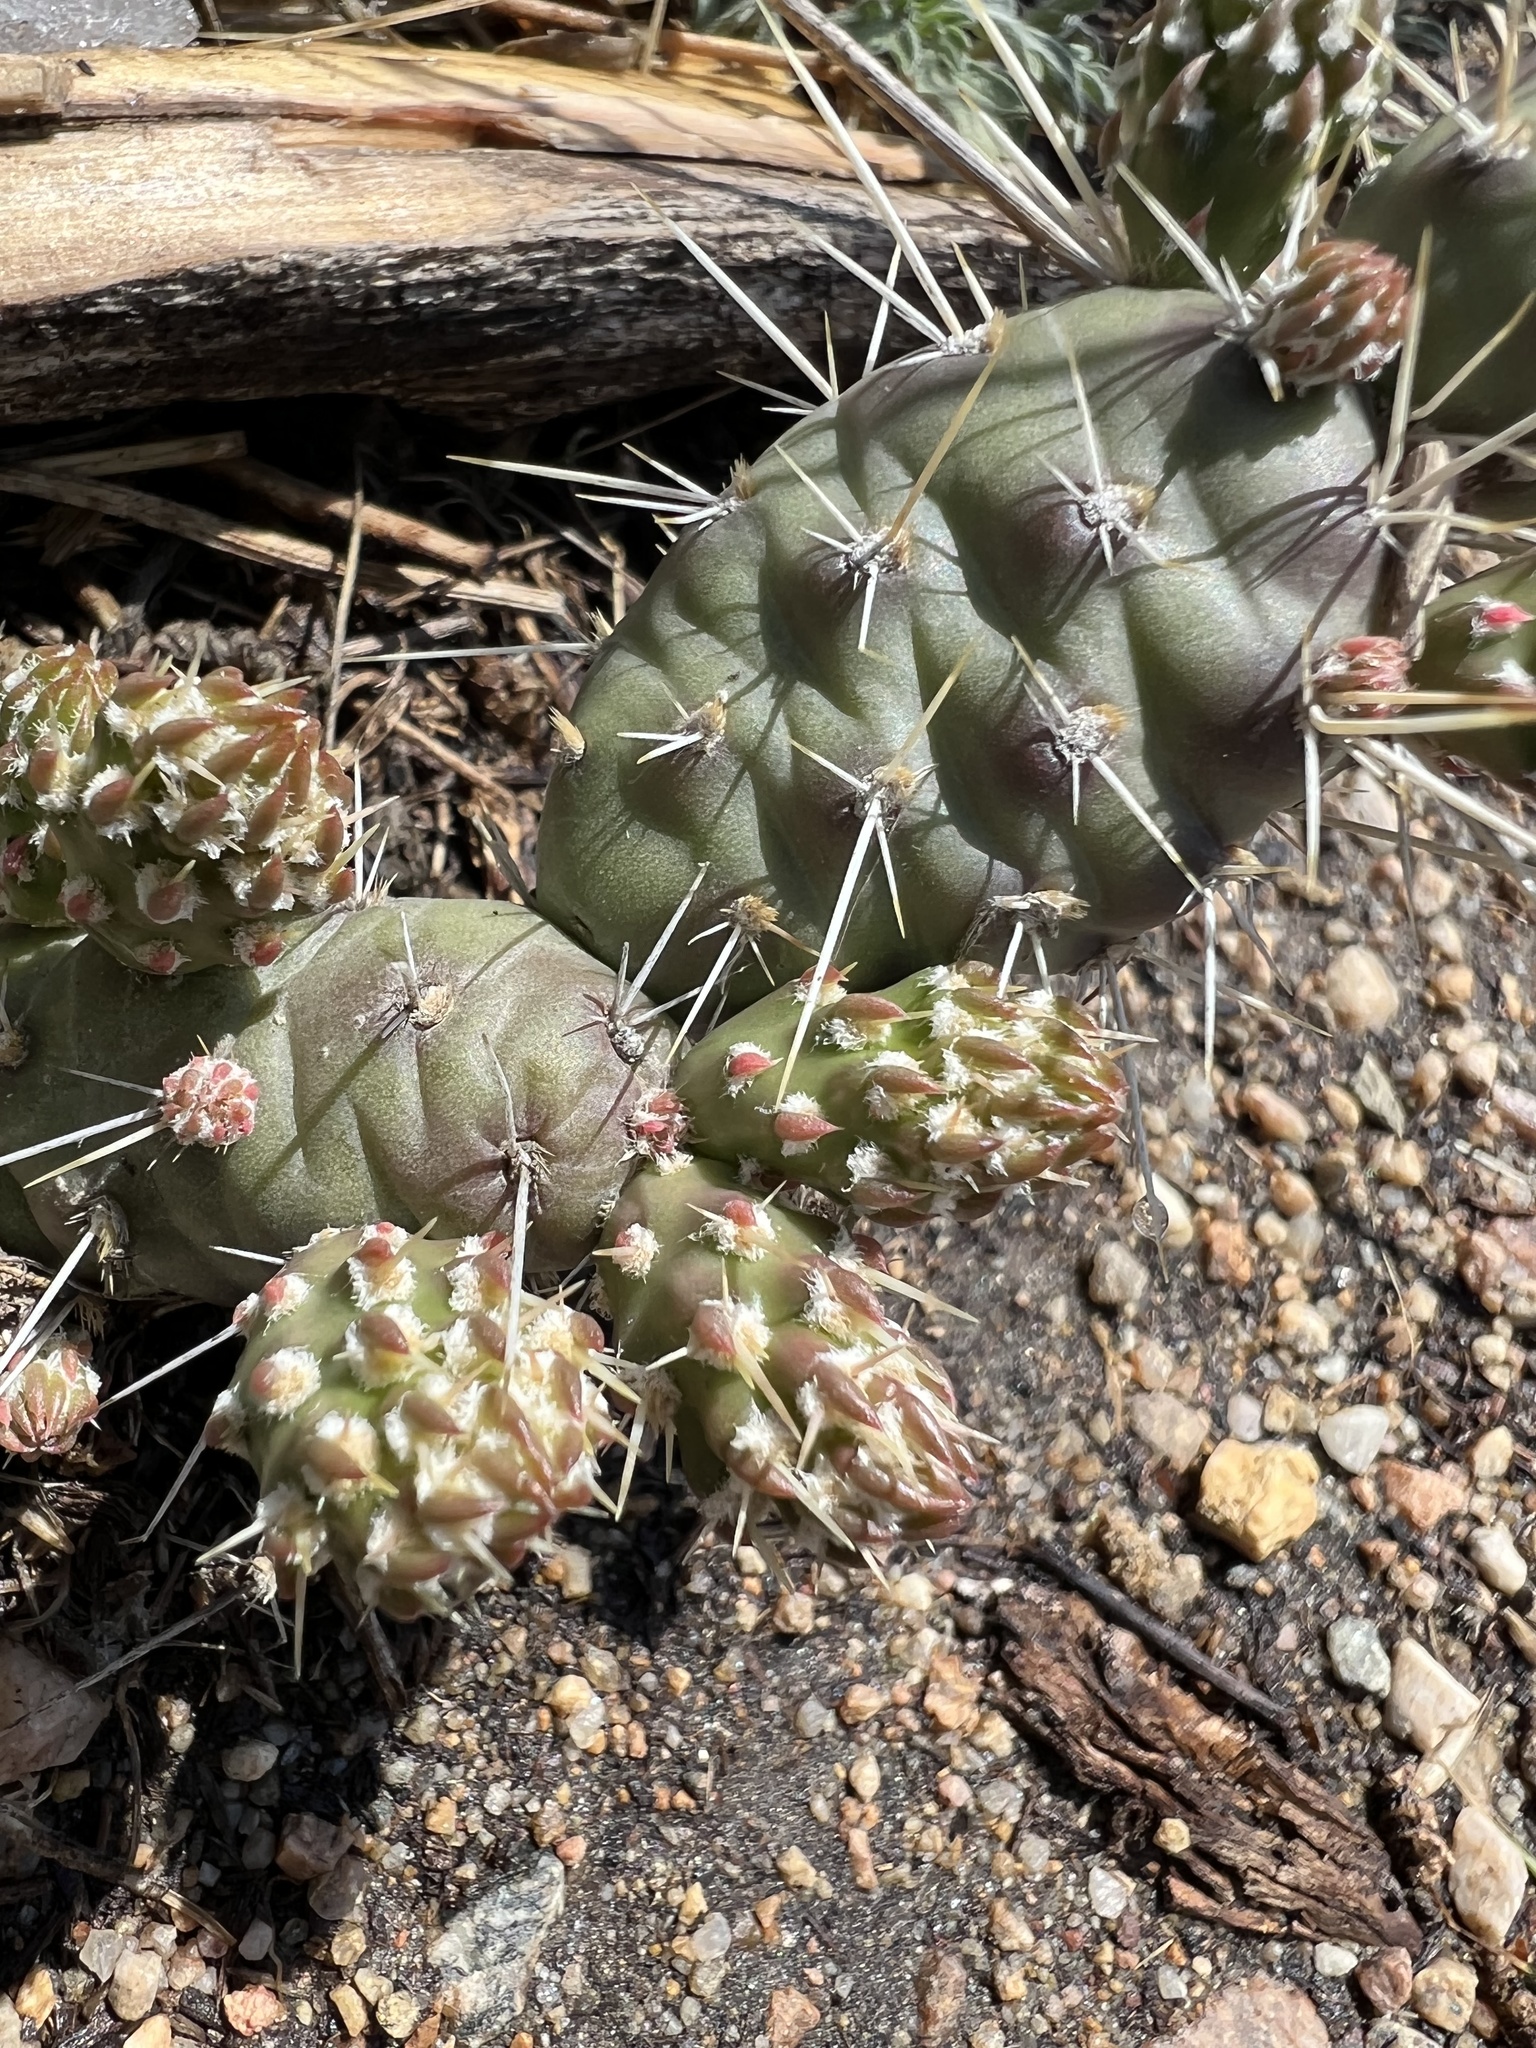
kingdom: Plantae
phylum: Tracheophyta
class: Magnoliopsida
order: Caryophyllales
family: Cactaceae
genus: Opuntia
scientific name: Opuntia fragilis
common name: Brittle cactus
